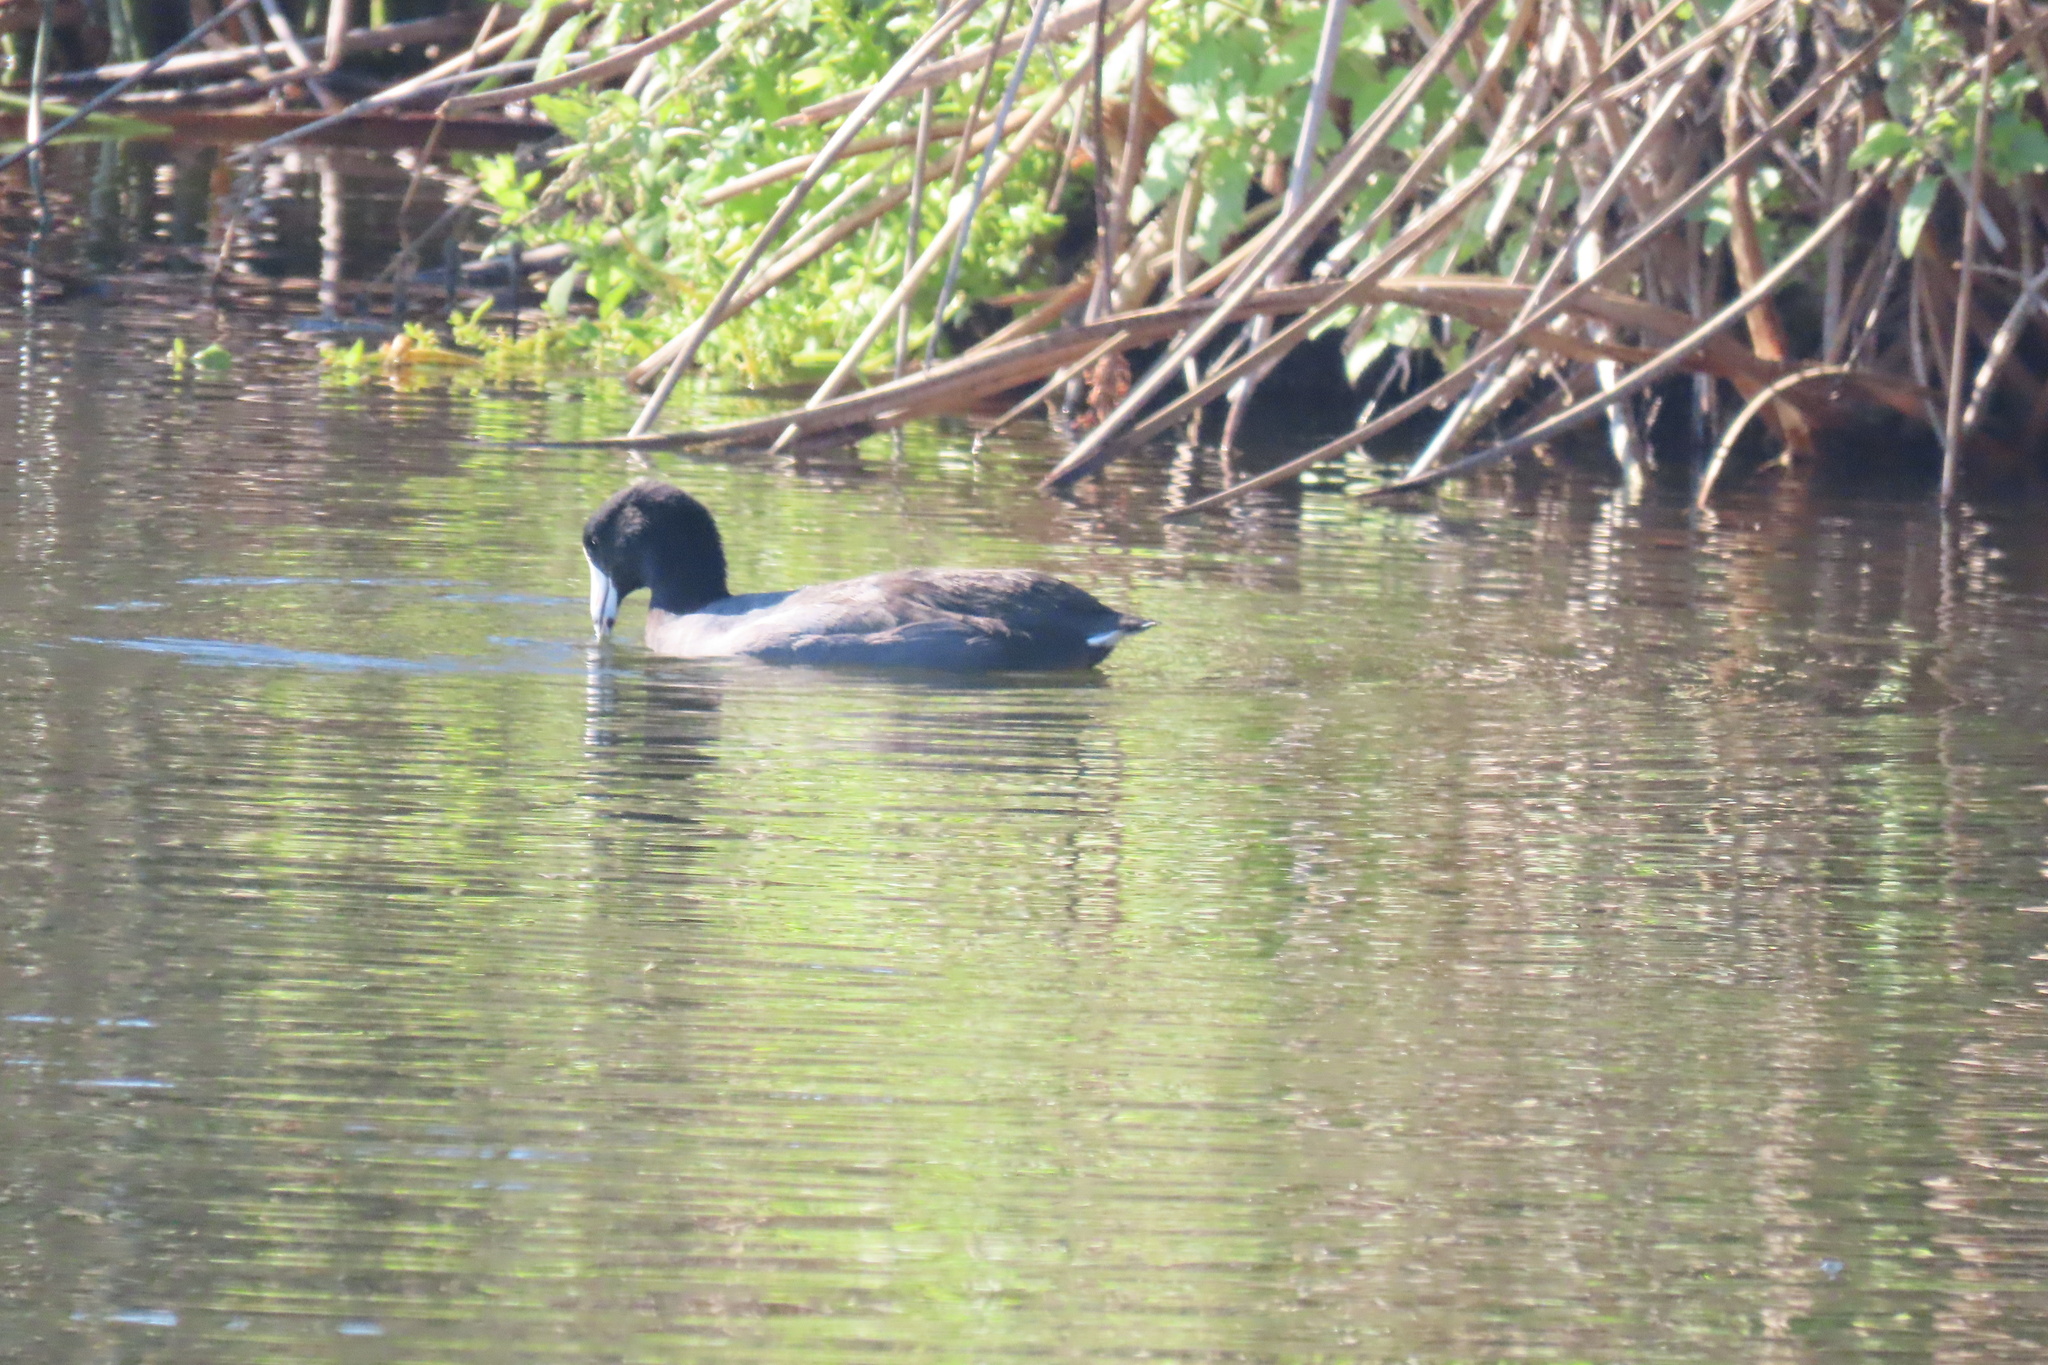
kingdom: Animalia
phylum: Chordata
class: Aves
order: Gruiformes
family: Rallidae
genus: Fulica
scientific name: Fulica americana
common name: American coot
